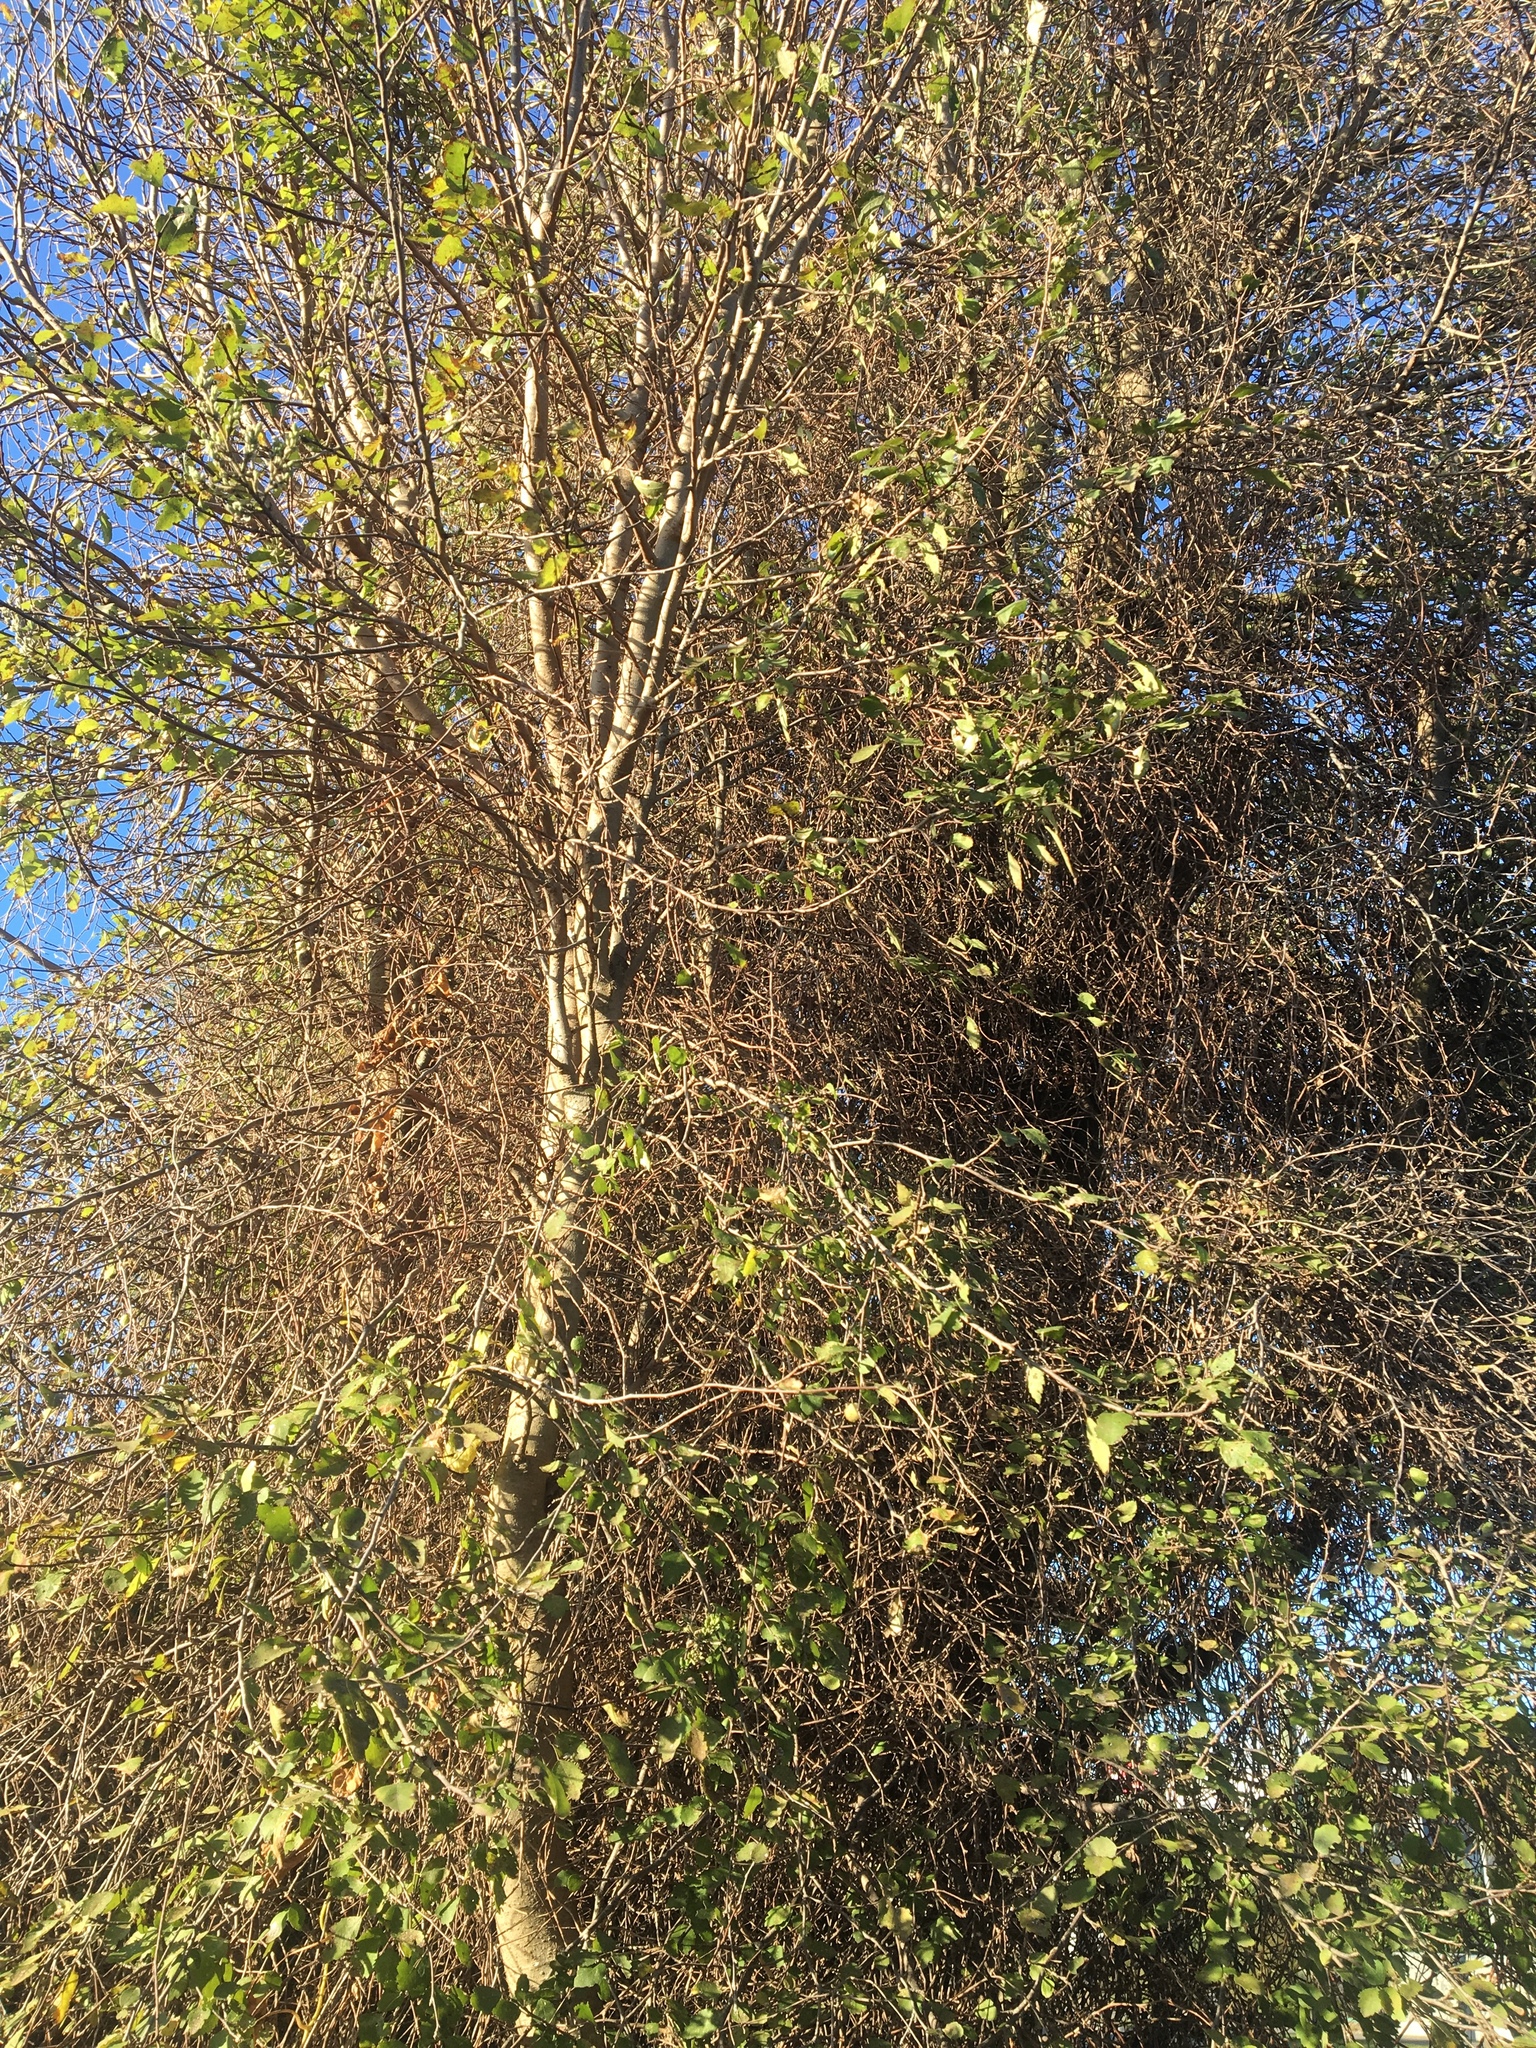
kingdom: Plantae
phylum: Tracheophyta
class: Magnoliopsida
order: Malvales
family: Malvaceae
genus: Plagianthus
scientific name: Plagianthus regius
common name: Manatu
